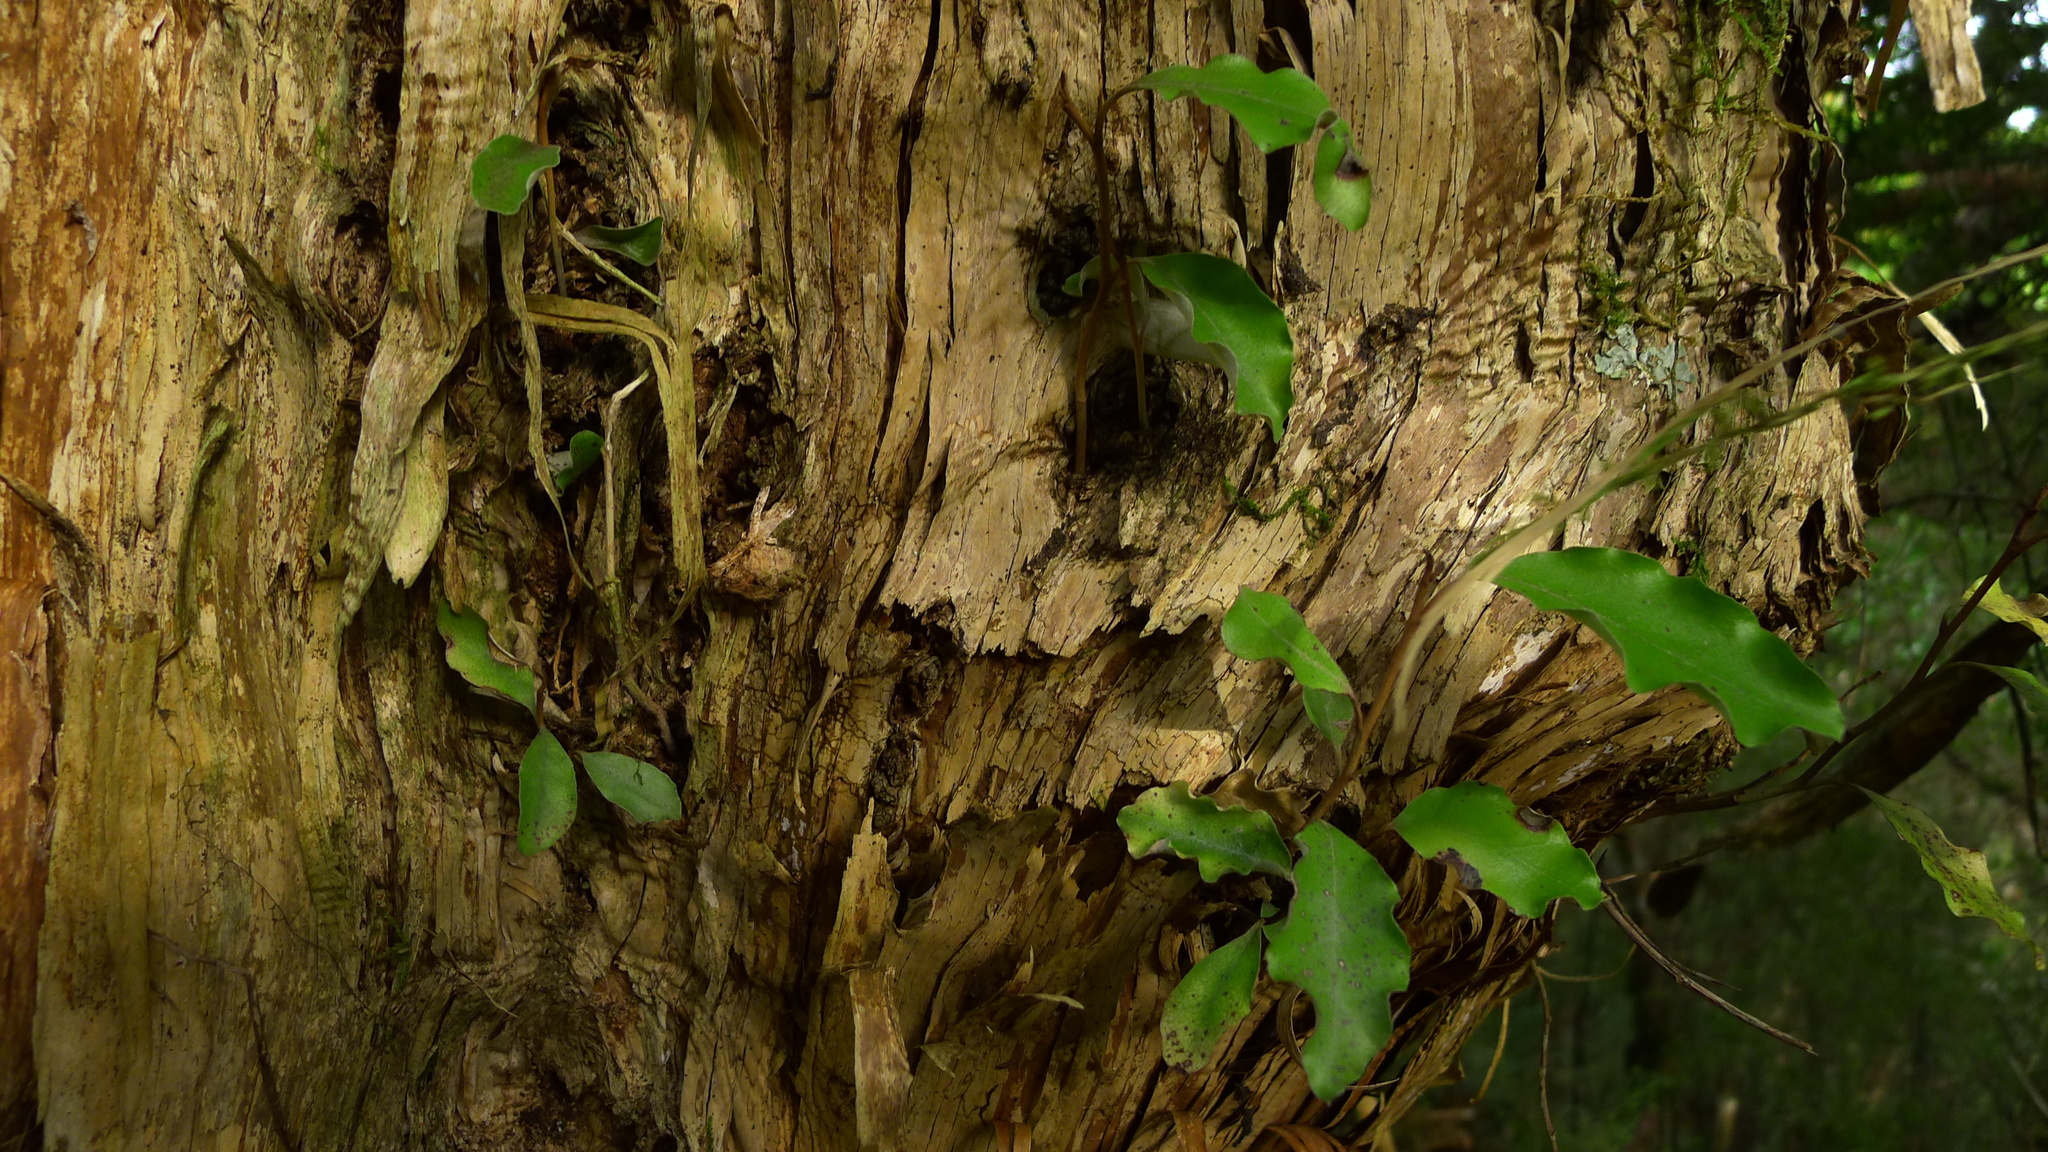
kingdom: Plantae
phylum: Tracheophyta
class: Magnoliopsida
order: Asterales
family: Asteraceae
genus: Olearia
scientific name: Olearia paniculata
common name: Akiraho
